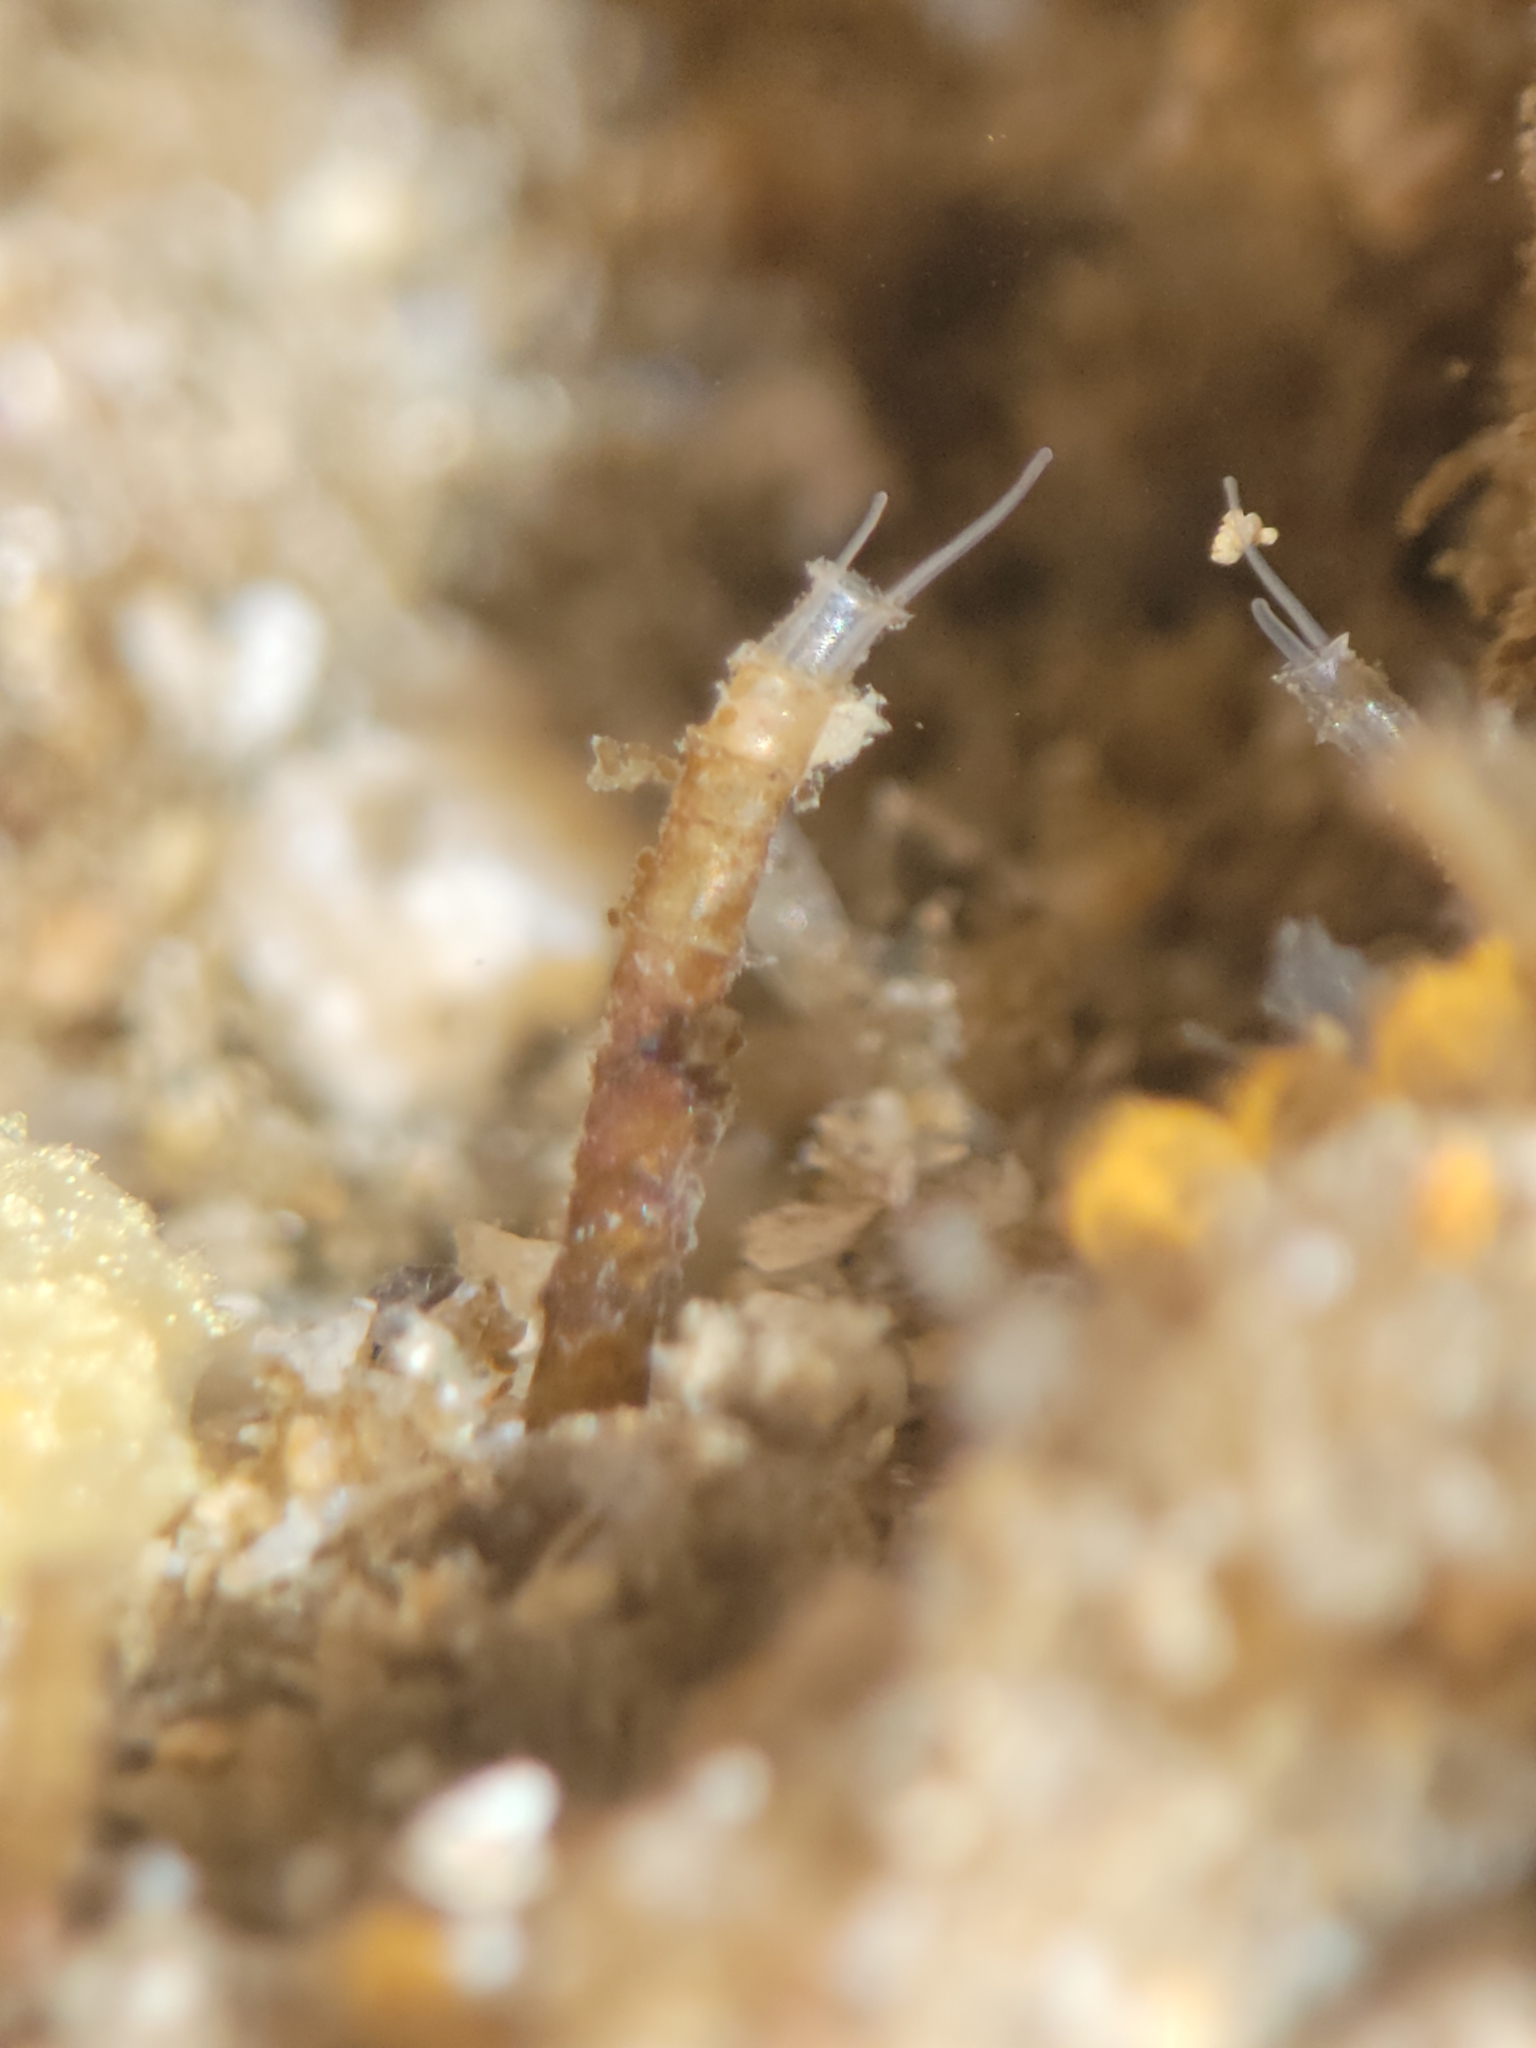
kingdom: Animalia
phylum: Annelida
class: Polychaeta
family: Chaetopteridae
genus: Phyllochaetopterus
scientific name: Phyllochaetopterus prolifica
